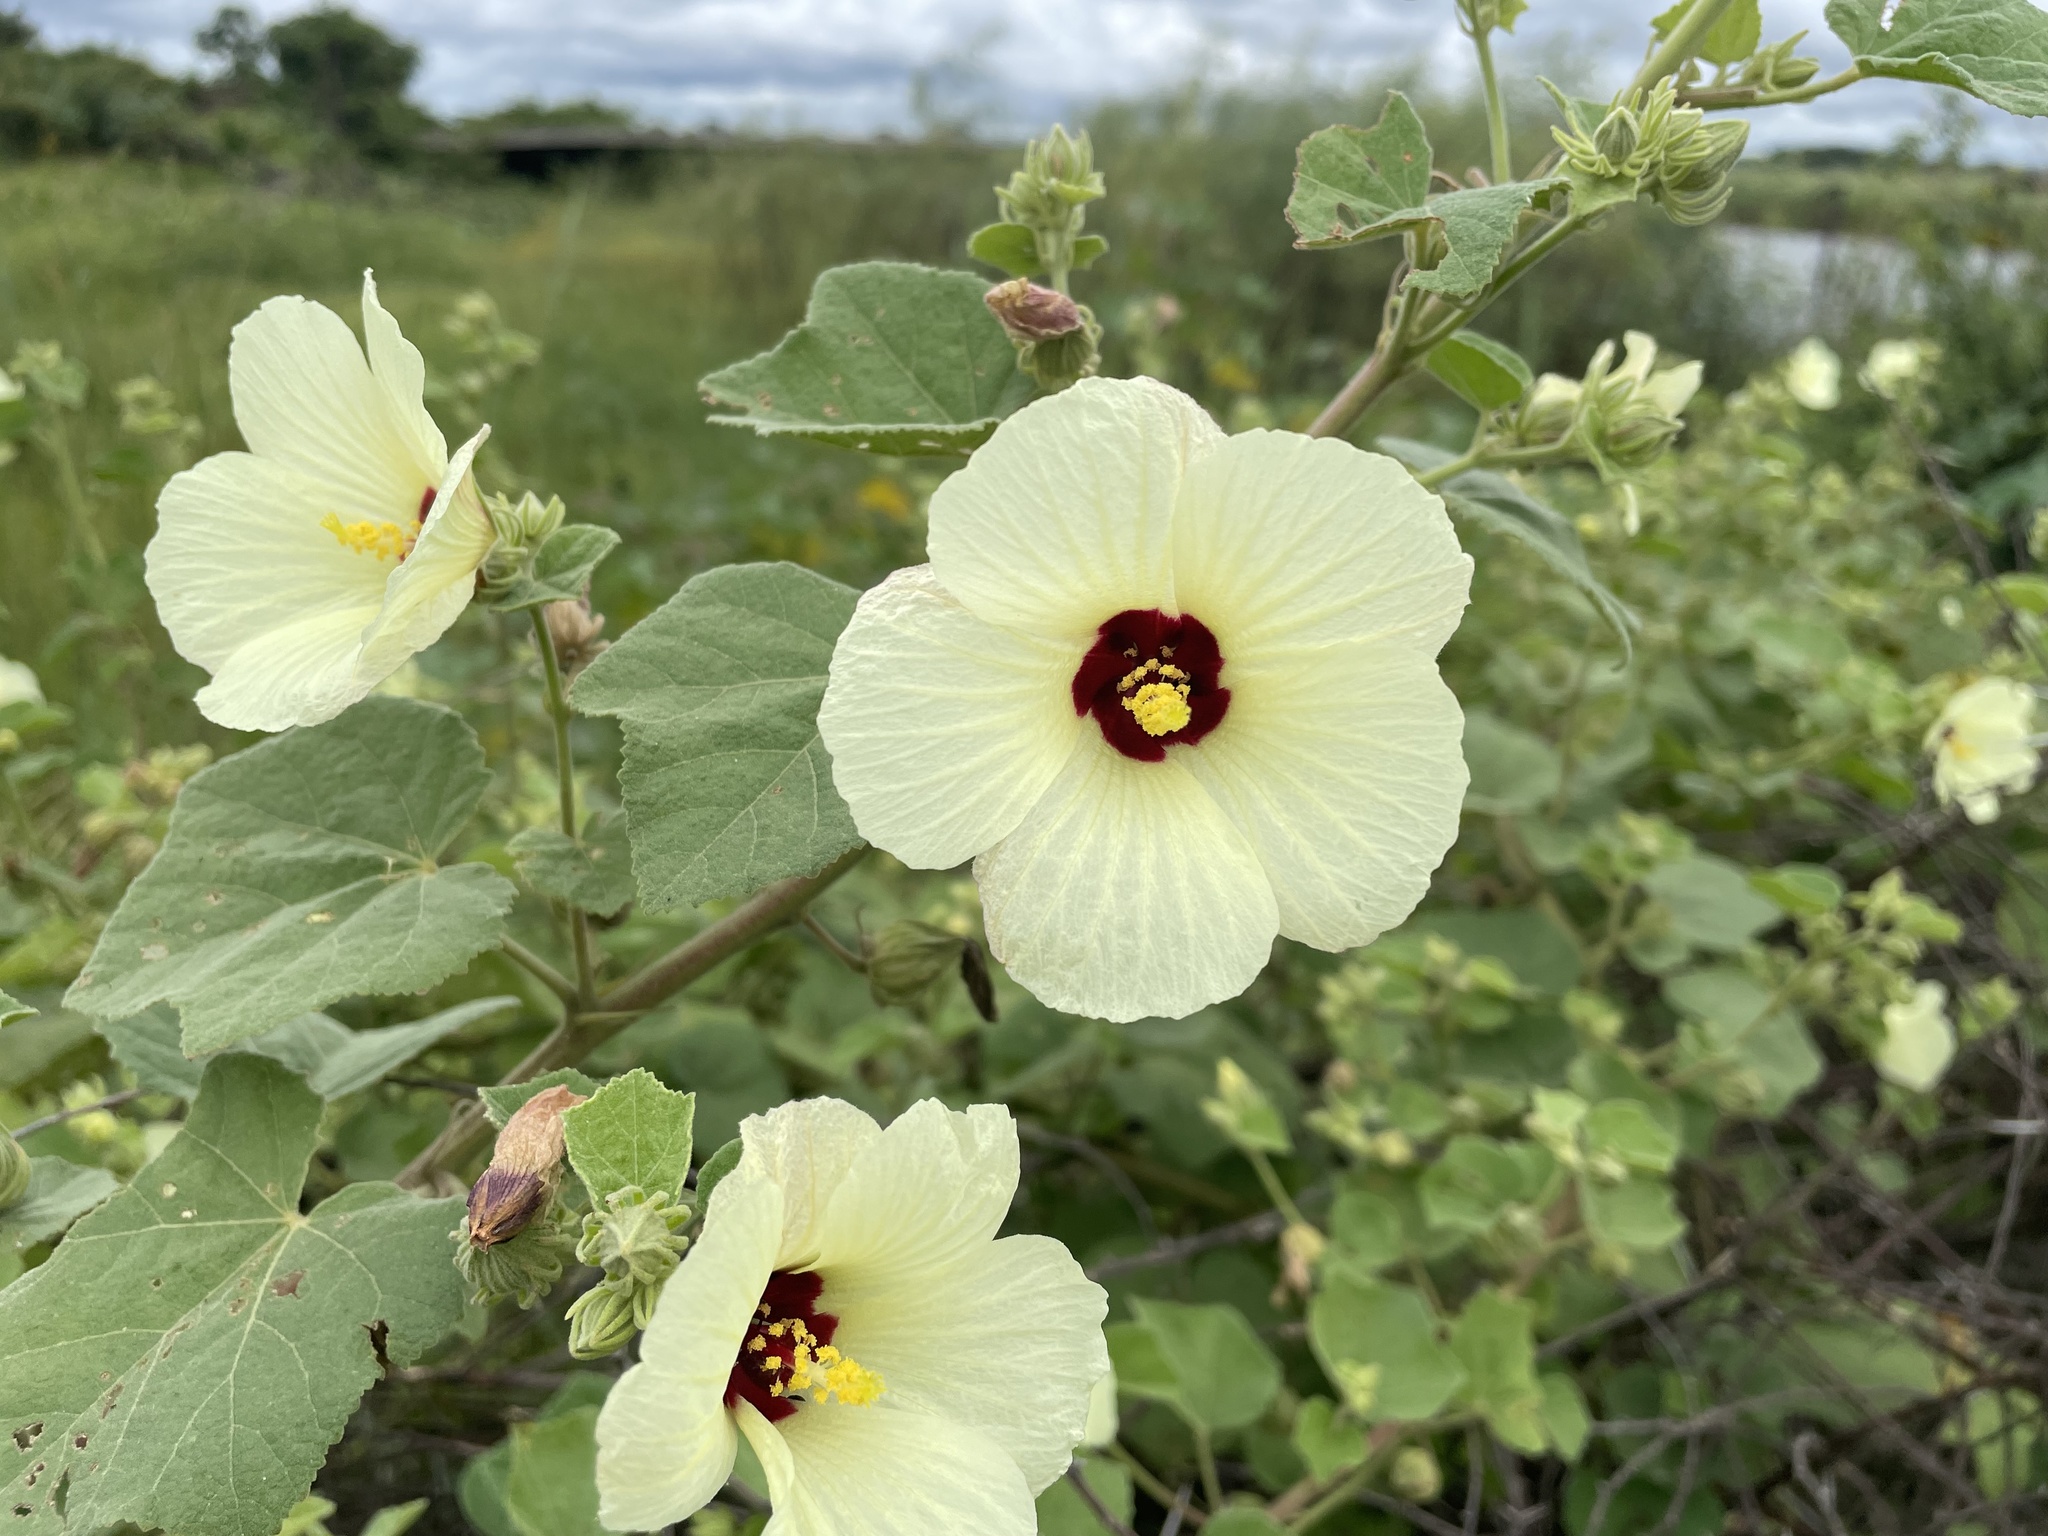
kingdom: Plantae
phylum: Tracheophyta
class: Magnoliopsida
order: Malvales
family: Malvaceae
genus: Pavonia
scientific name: Pavonia senegalensis
